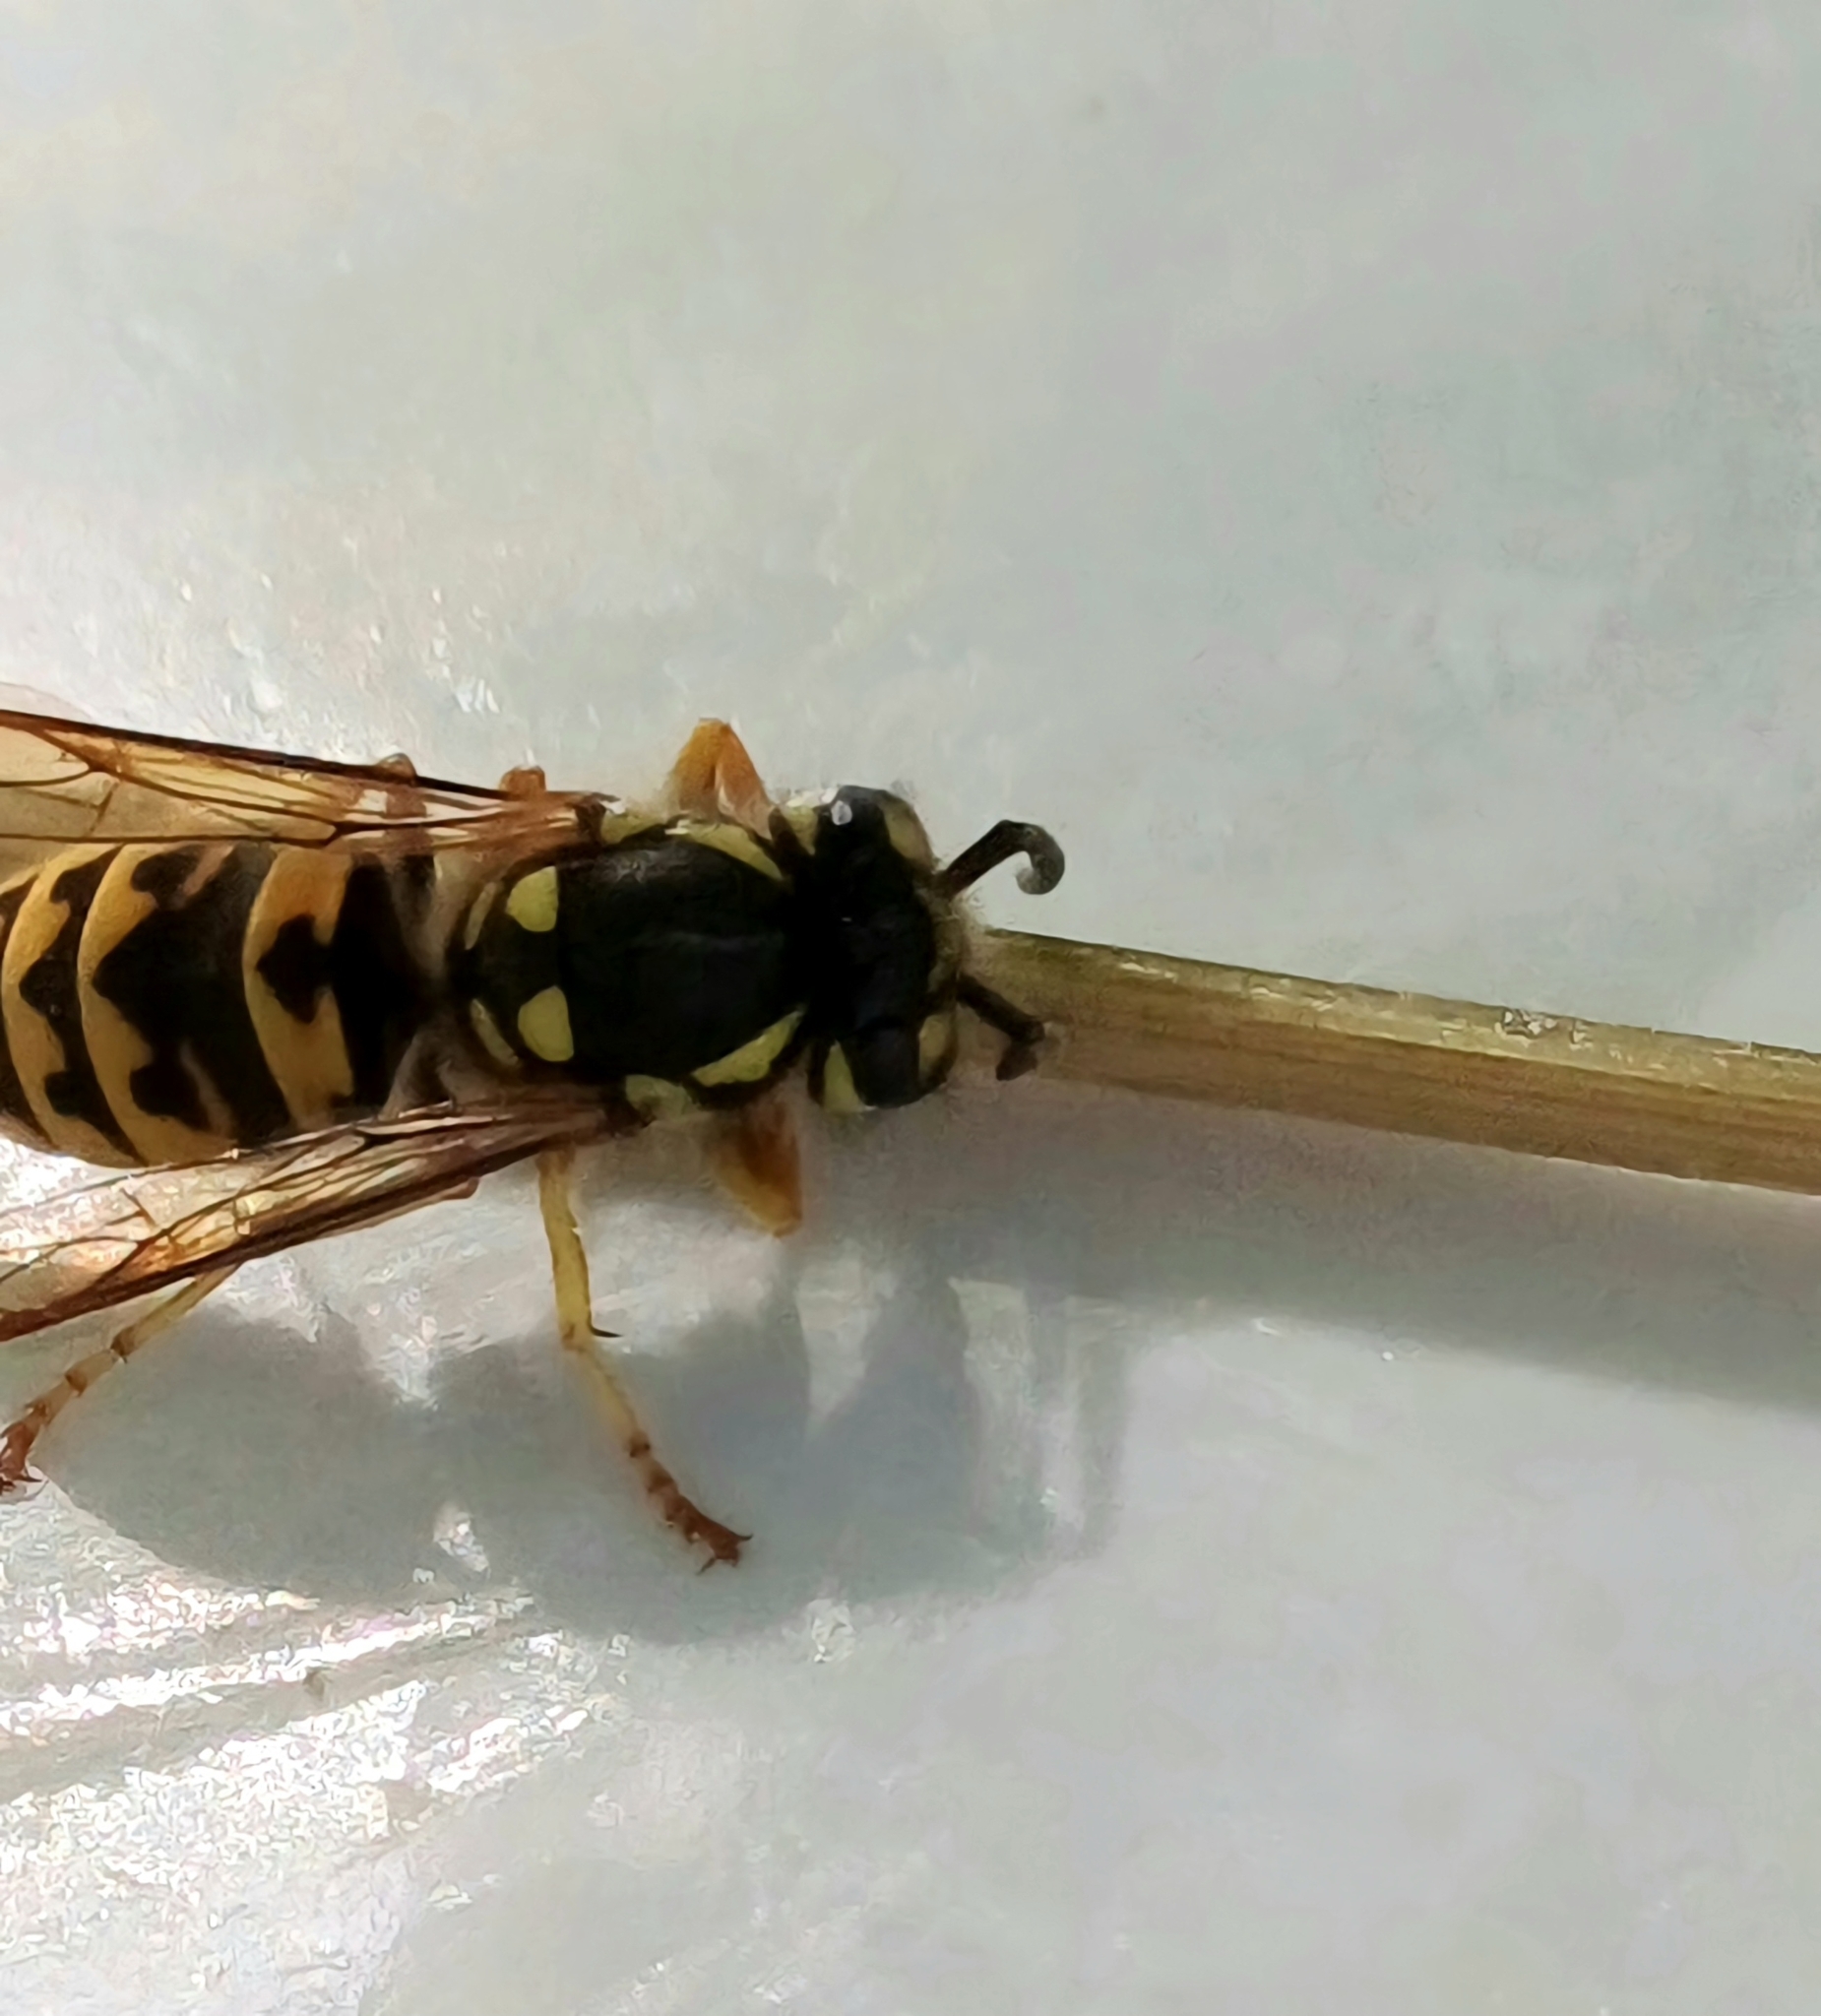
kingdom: Animalia
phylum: Arthropoda
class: Insecta
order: Hymenoptera
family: Vespidae
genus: Vespula
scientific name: Vespula germanica
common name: German wasp
